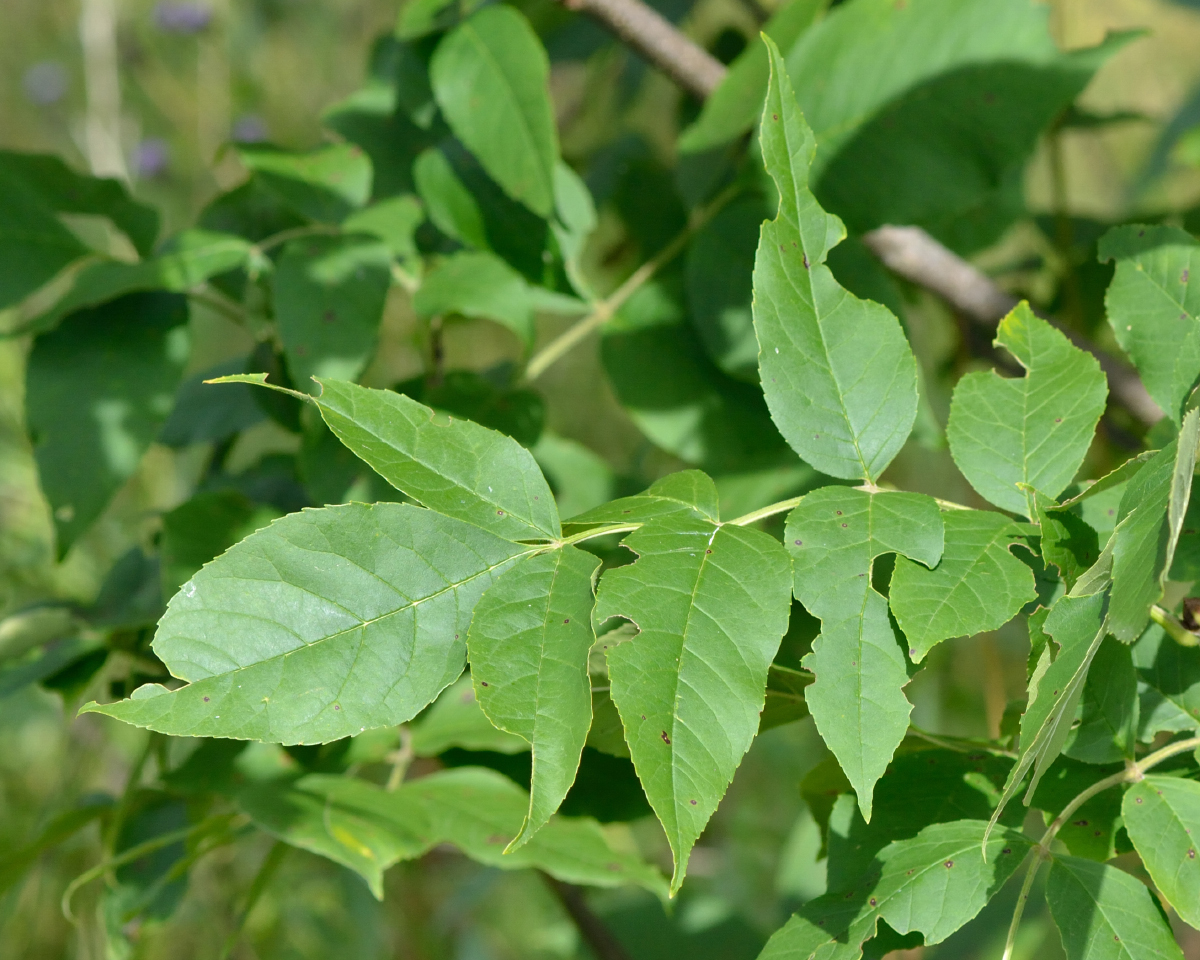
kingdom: Plantae
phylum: Tracheophyta
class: Magnoliopsida
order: Lamiales
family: Oleaceae
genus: Fraxinus
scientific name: Fraxinus pennsylvanica
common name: Green ash
